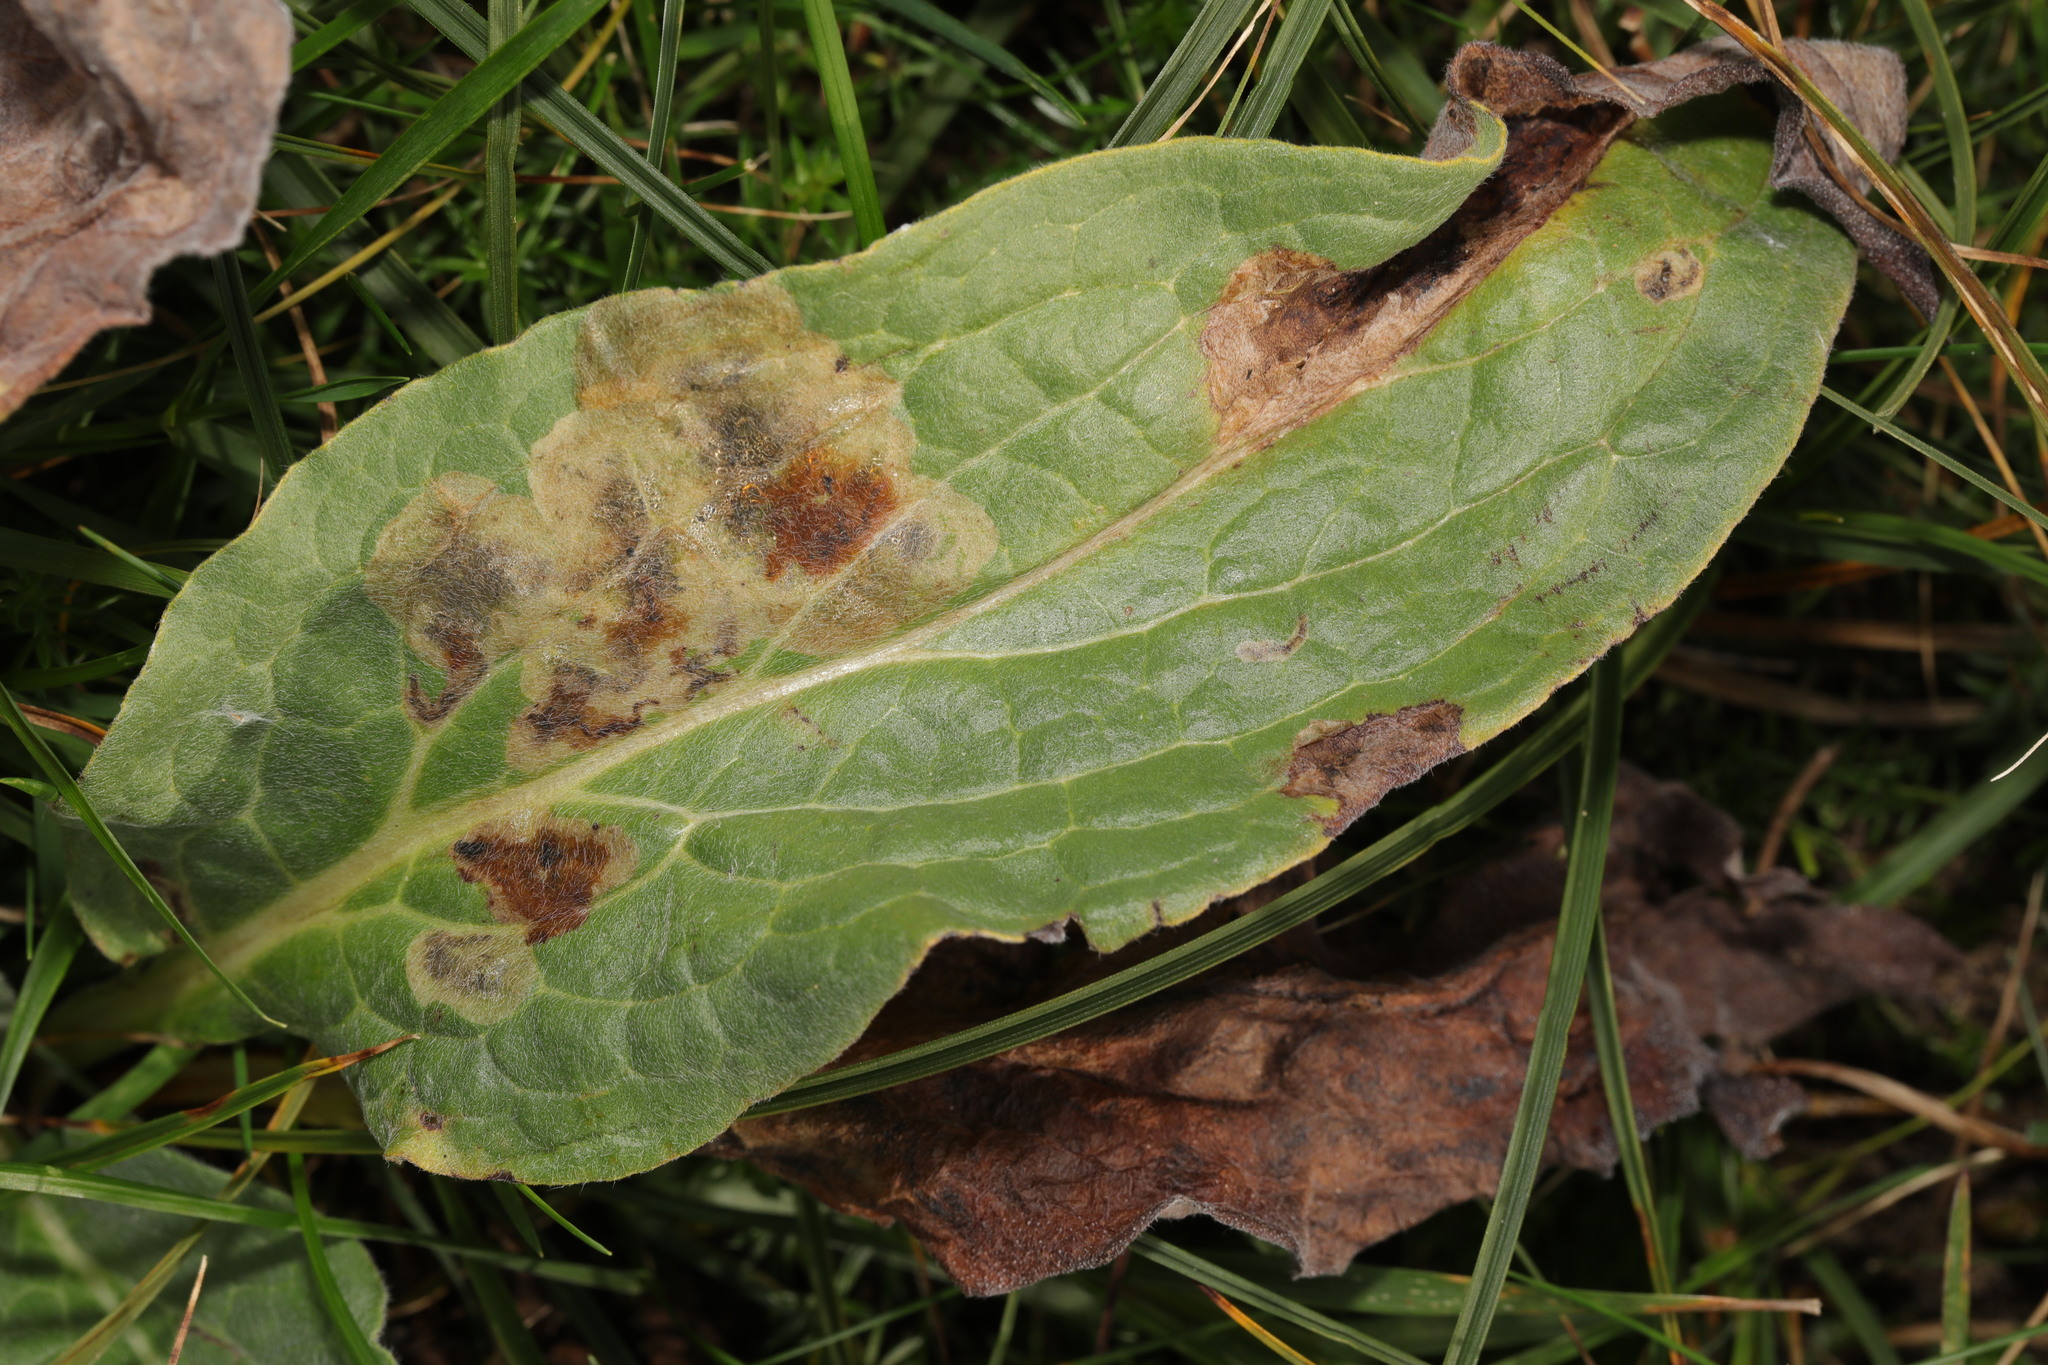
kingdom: Plantae
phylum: Tracheophyta
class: Magnoliopsida
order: Boraginales
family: Boraginaceae
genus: Cynoglossum
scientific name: Cynoglossum officinale
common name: Hound's-tongue
